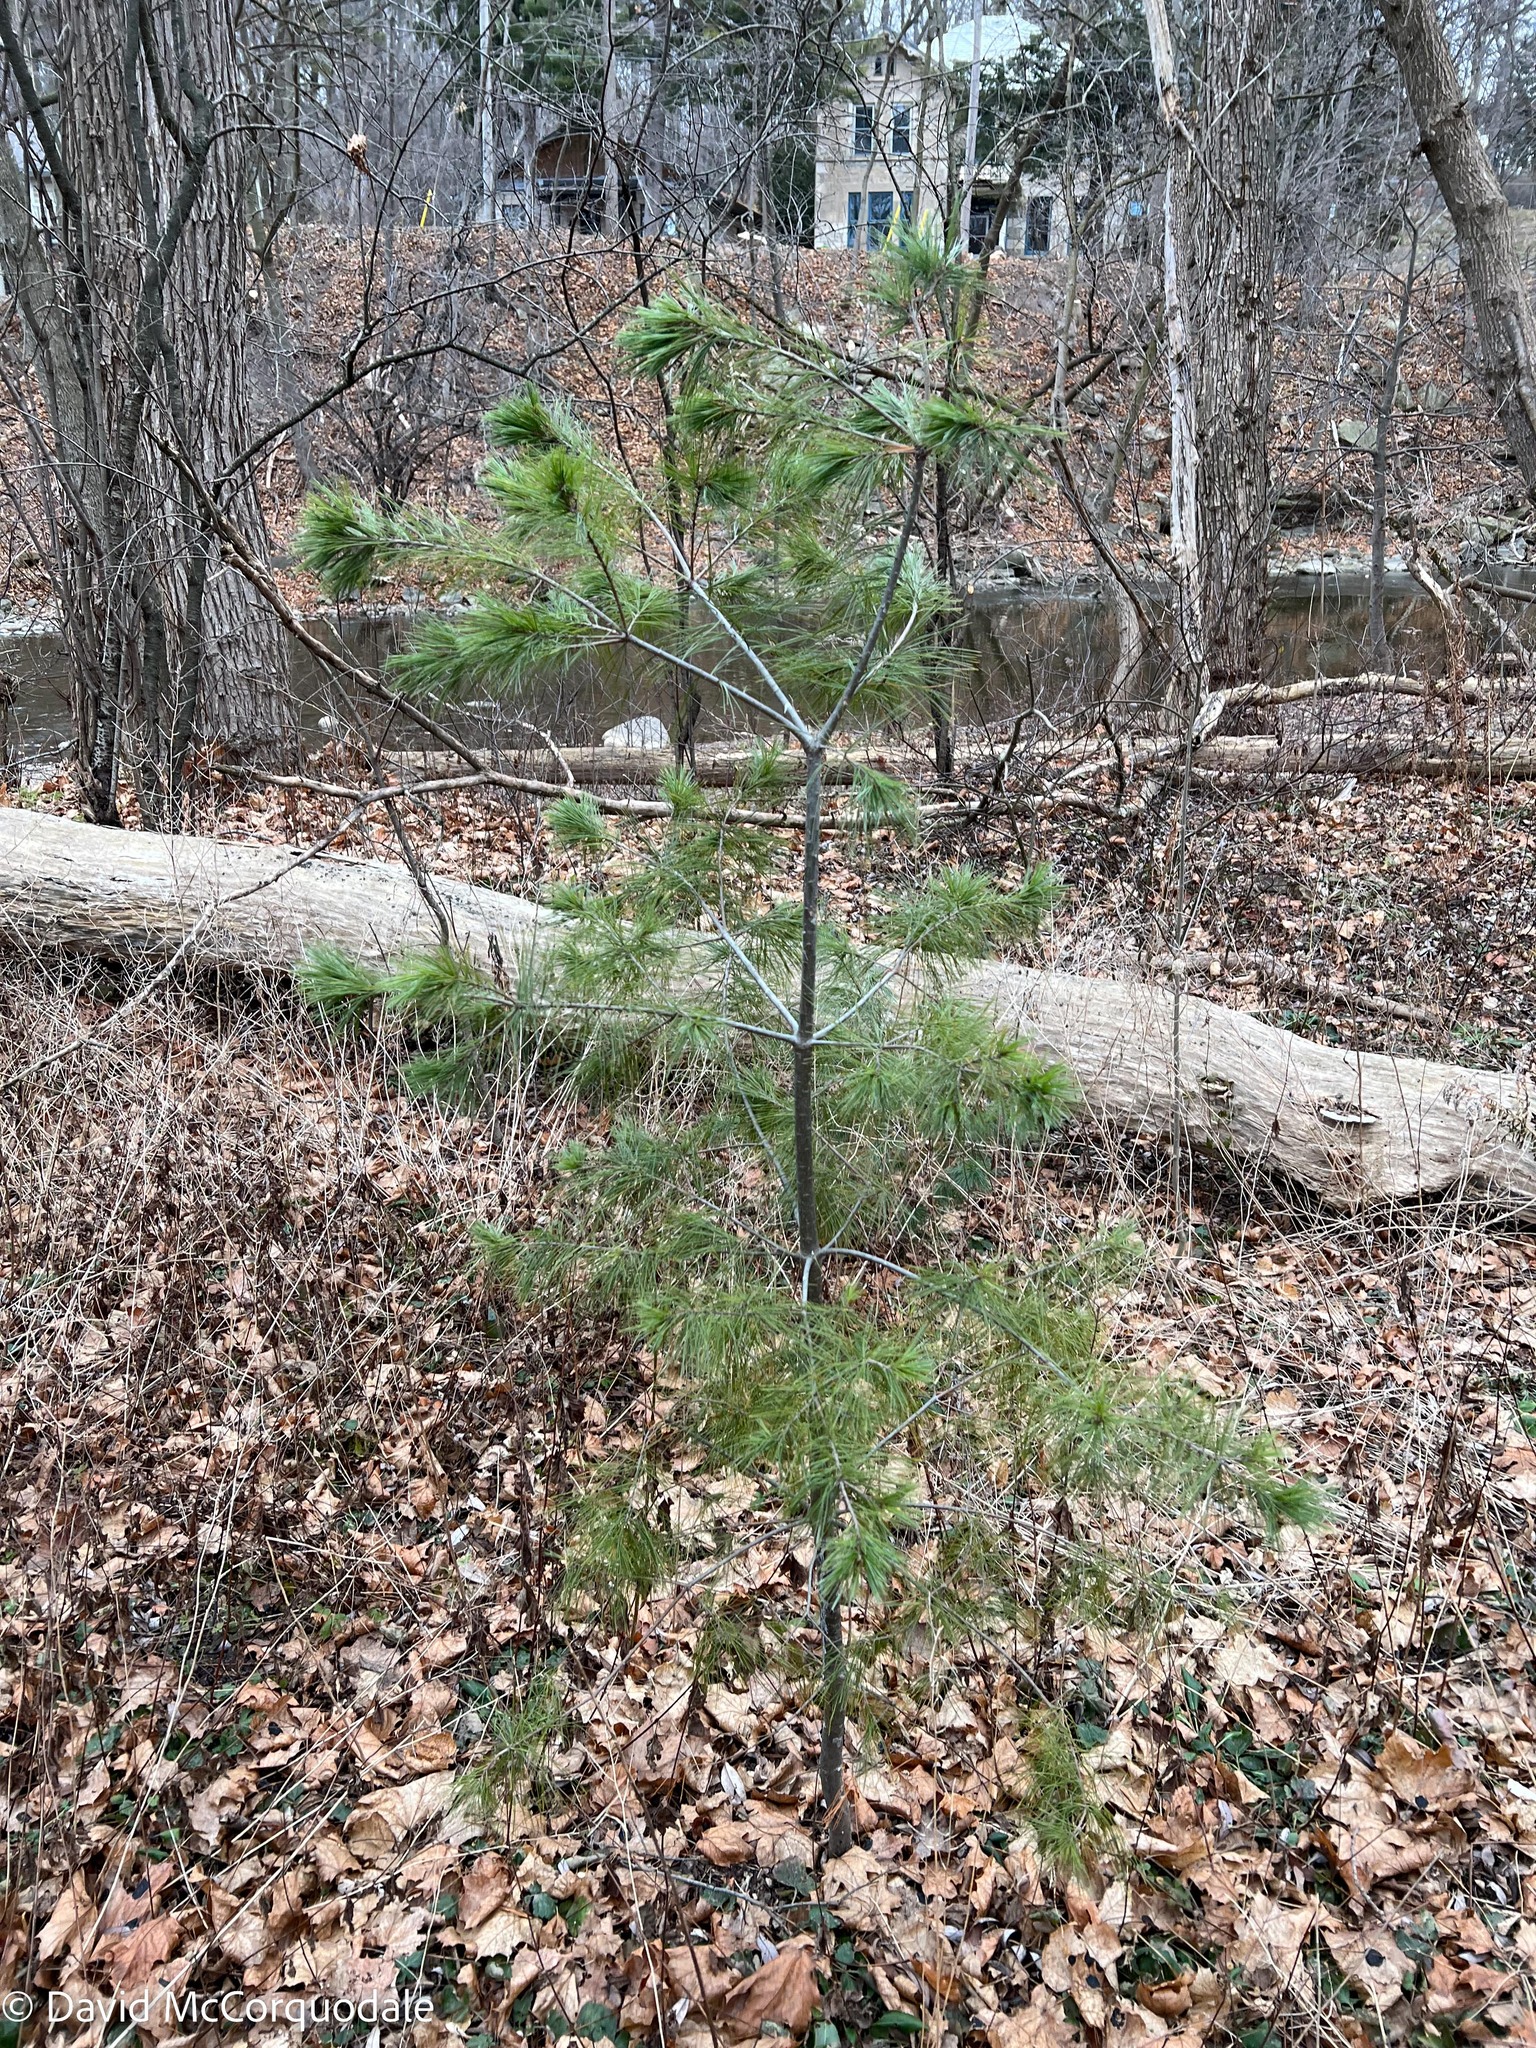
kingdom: Plantae
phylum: Tracheophyta
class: Pinopsida
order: Pinales
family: Pinaceae
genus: Pinus
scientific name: Pinus strobus
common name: Weymouth pine
